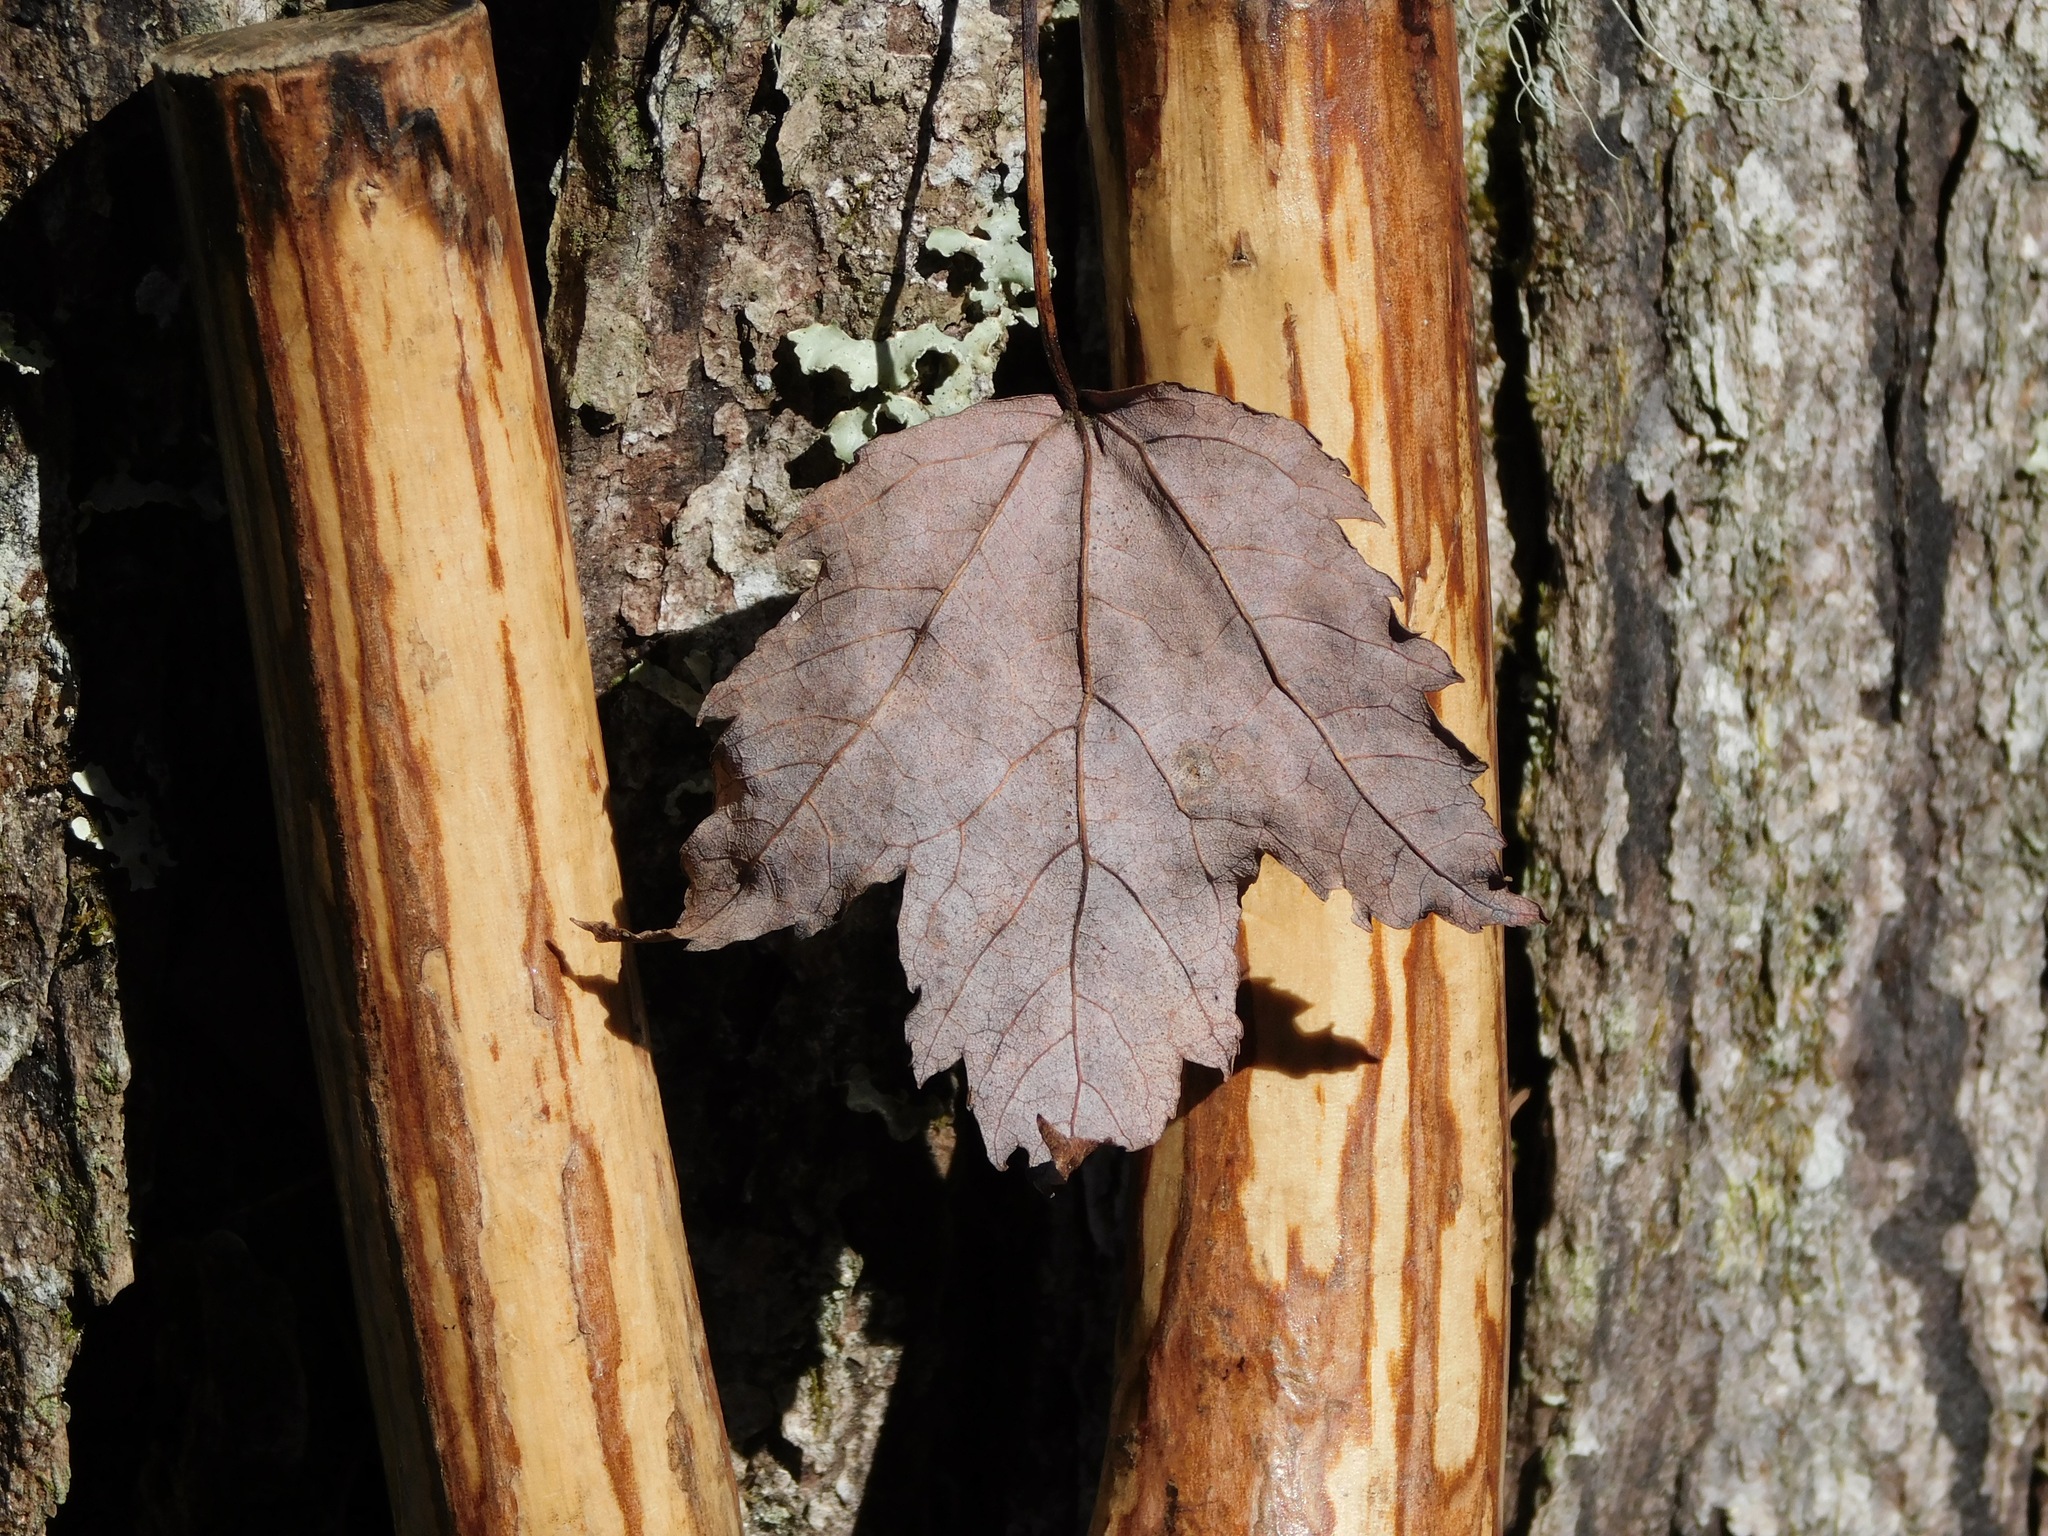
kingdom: Plantae
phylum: Tracheophyta
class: Magnoliopsida
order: Sapindales
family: Sapindaceae
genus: Acer
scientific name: Acer rubrum
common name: Red maple
